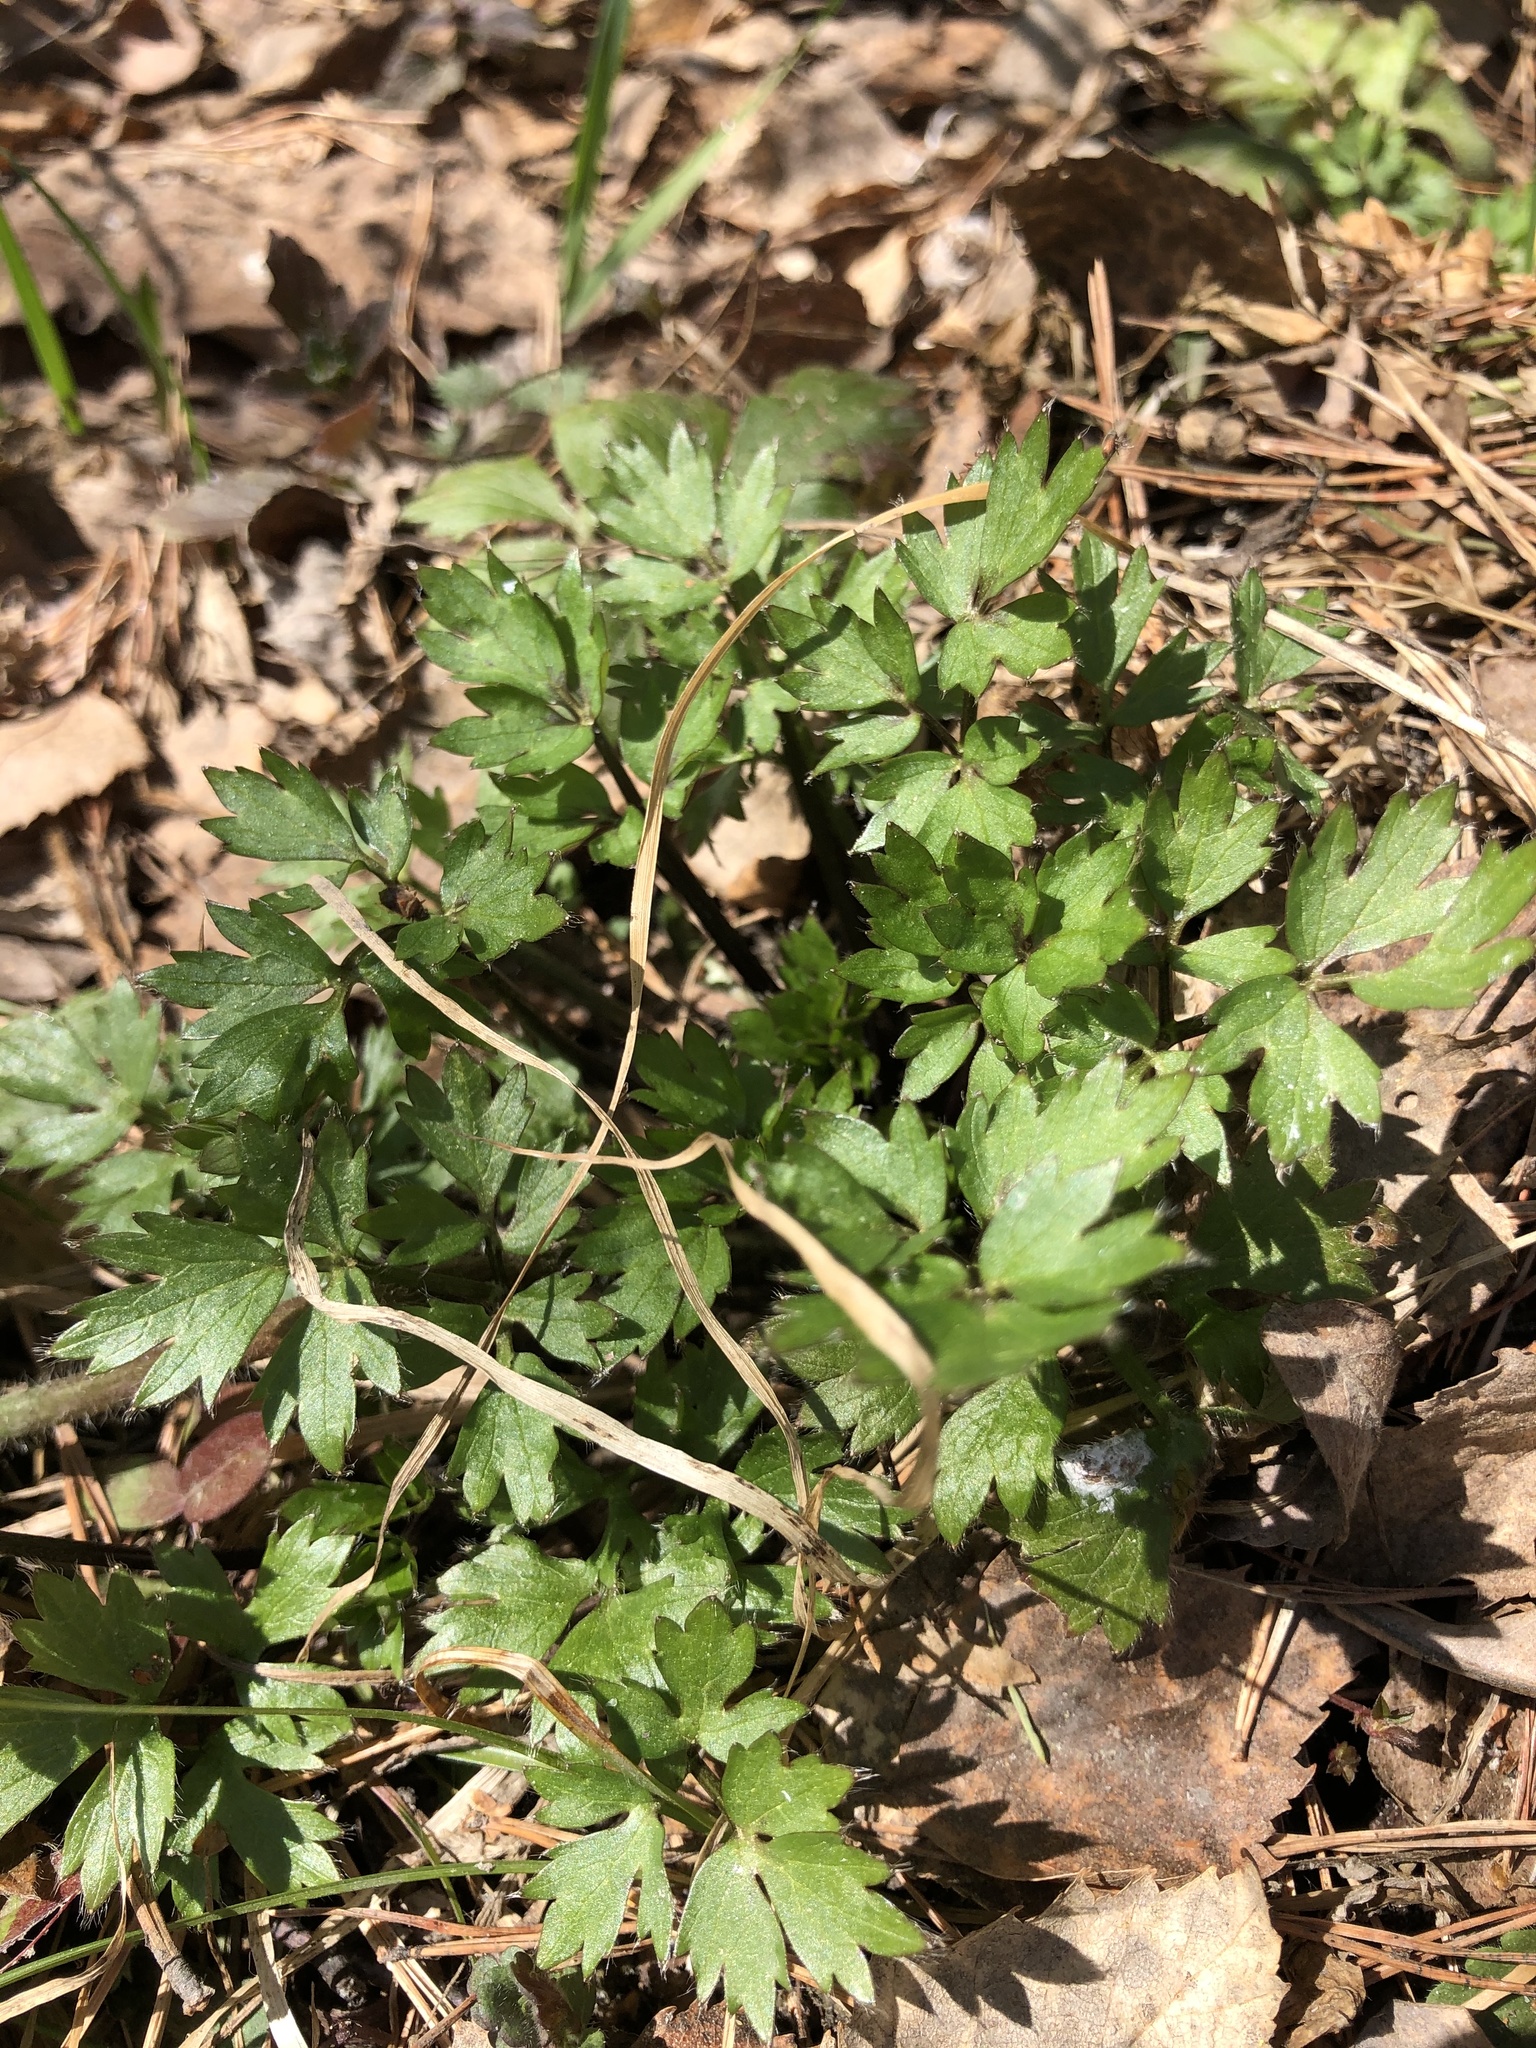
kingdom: Plantae
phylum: Tracheophyta
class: Magnoliopsida
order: Ranunculales
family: Ranunculaceae
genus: Ranunculus
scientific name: Ranunculus repens
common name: Creeping buttercup
